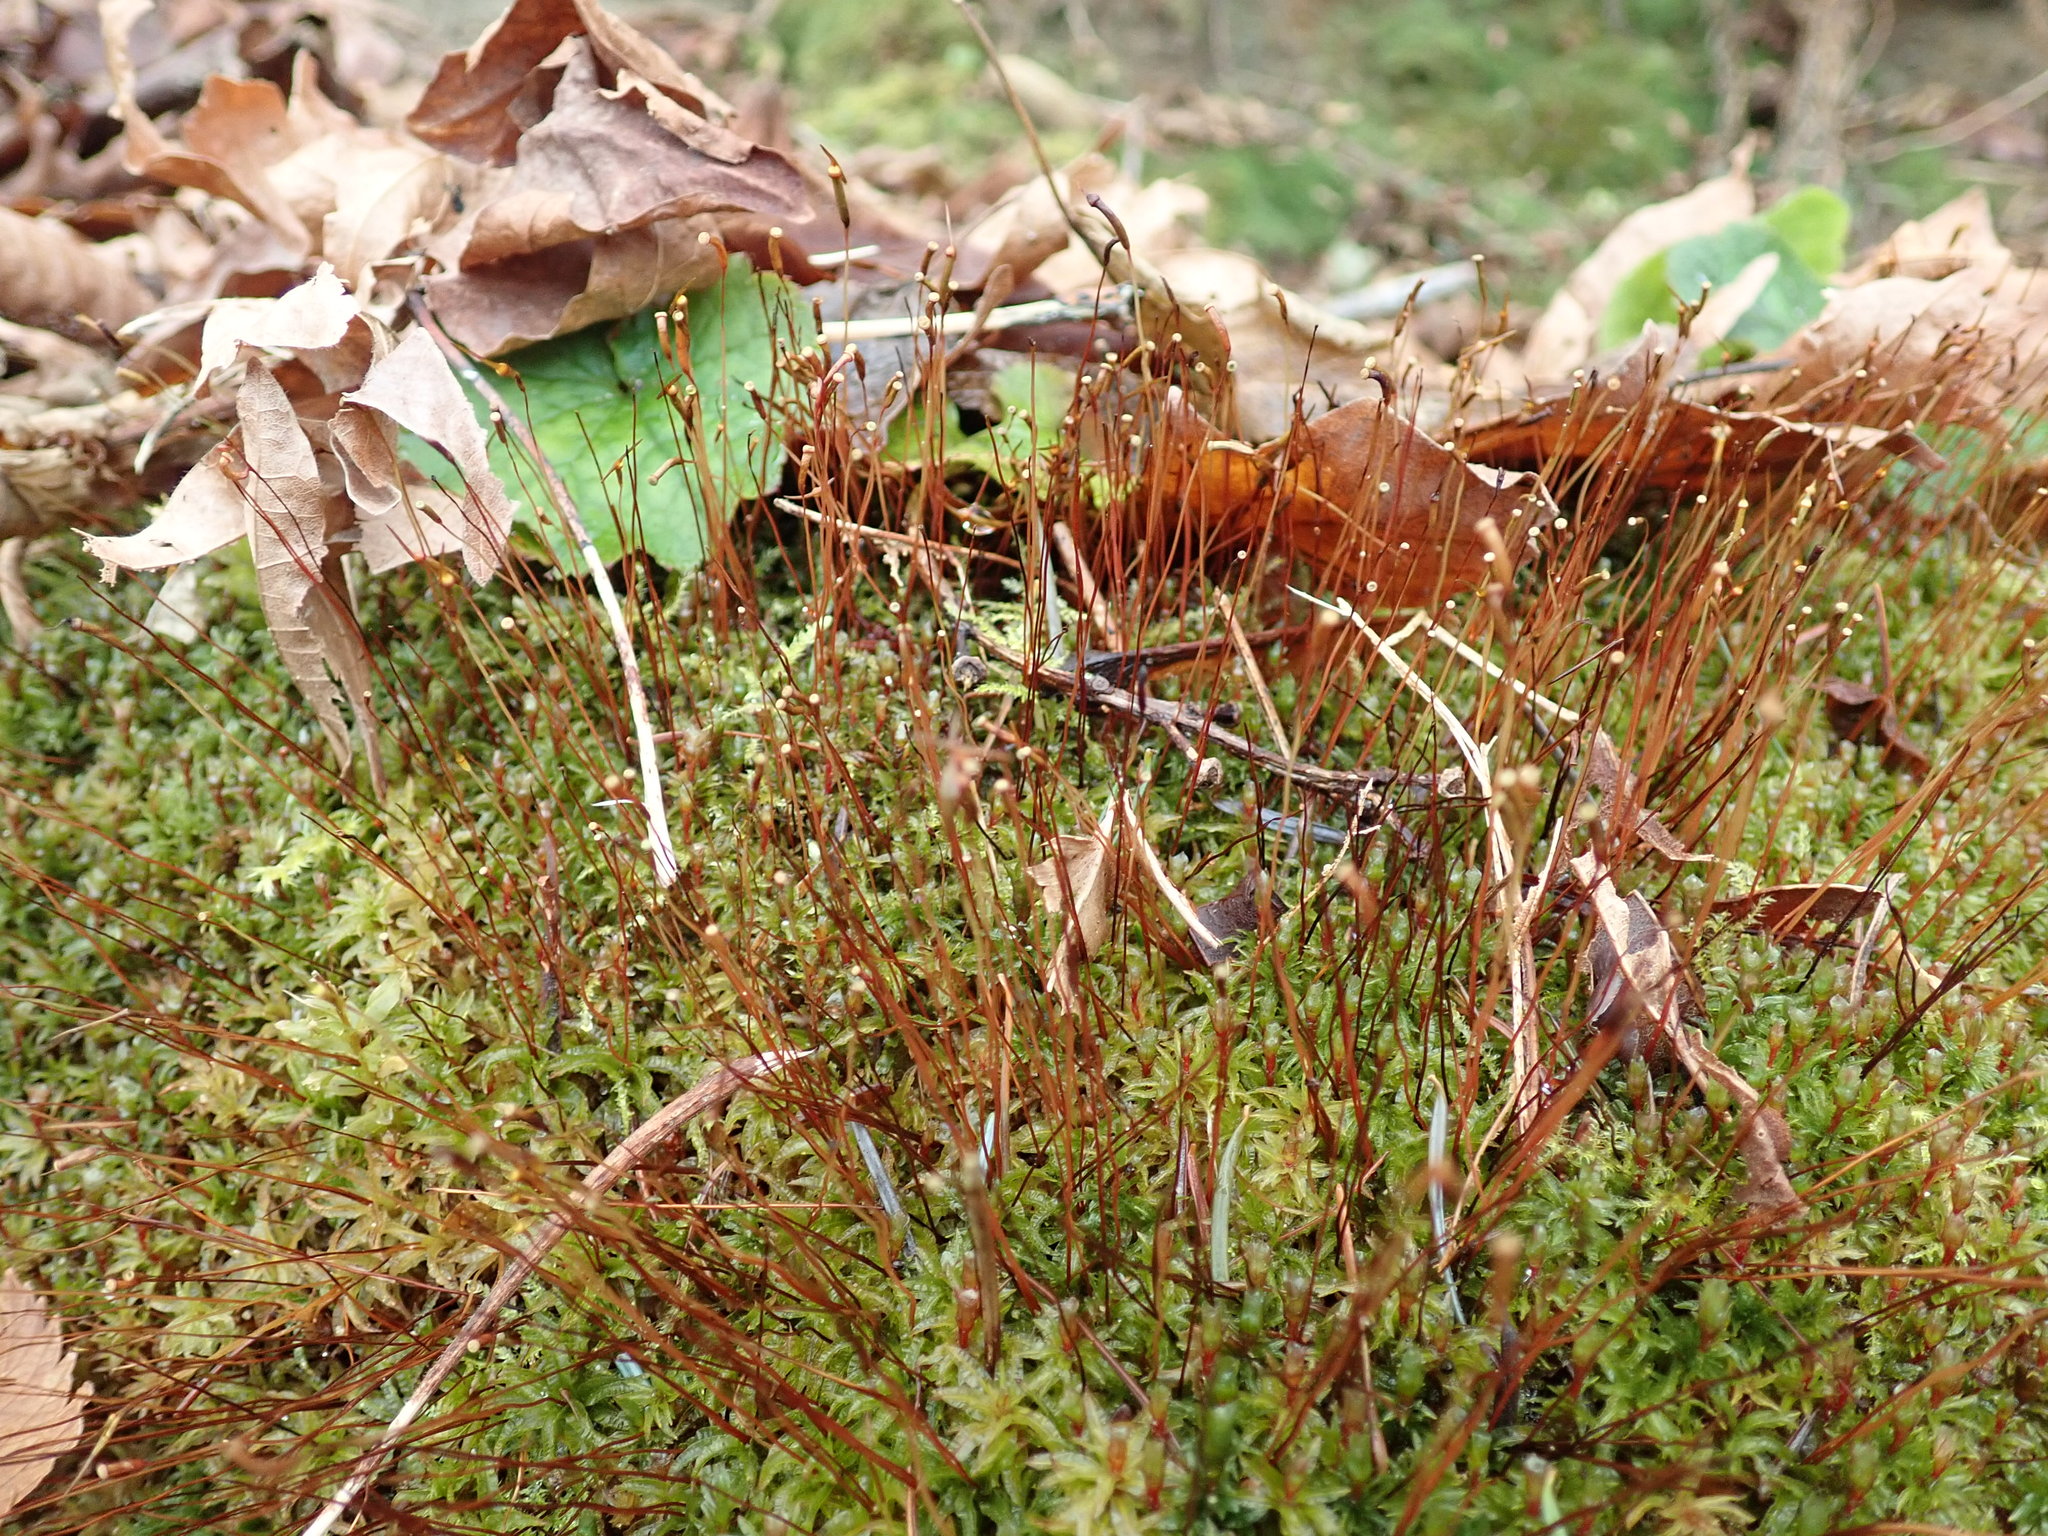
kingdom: Plantae
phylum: Bryophyta
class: Polytrichopsida
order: Polytrichales
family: Polytrichaceae
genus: Atrichum
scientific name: Atrichum selwynii
